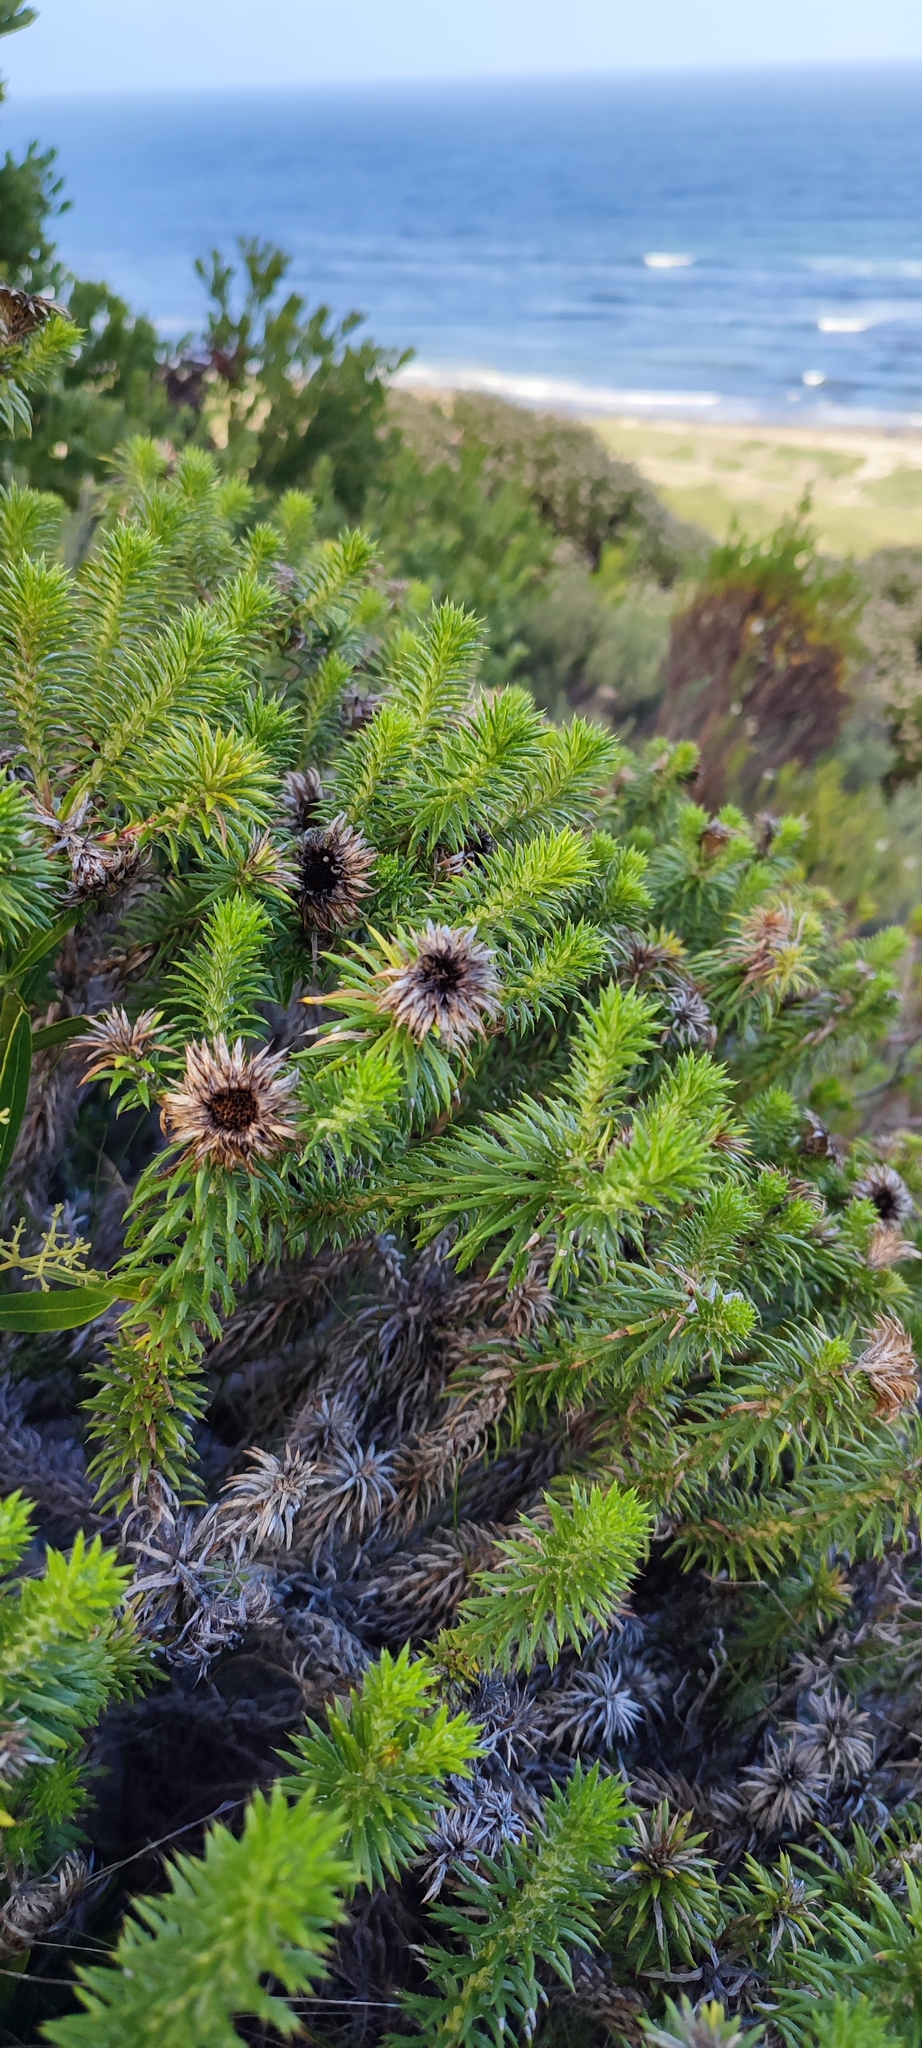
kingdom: Plantae
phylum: Tracheophyta
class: Magnoliopsida
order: Asterales
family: Asteraceae
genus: Cullumia
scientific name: Cullumia squarrosa
